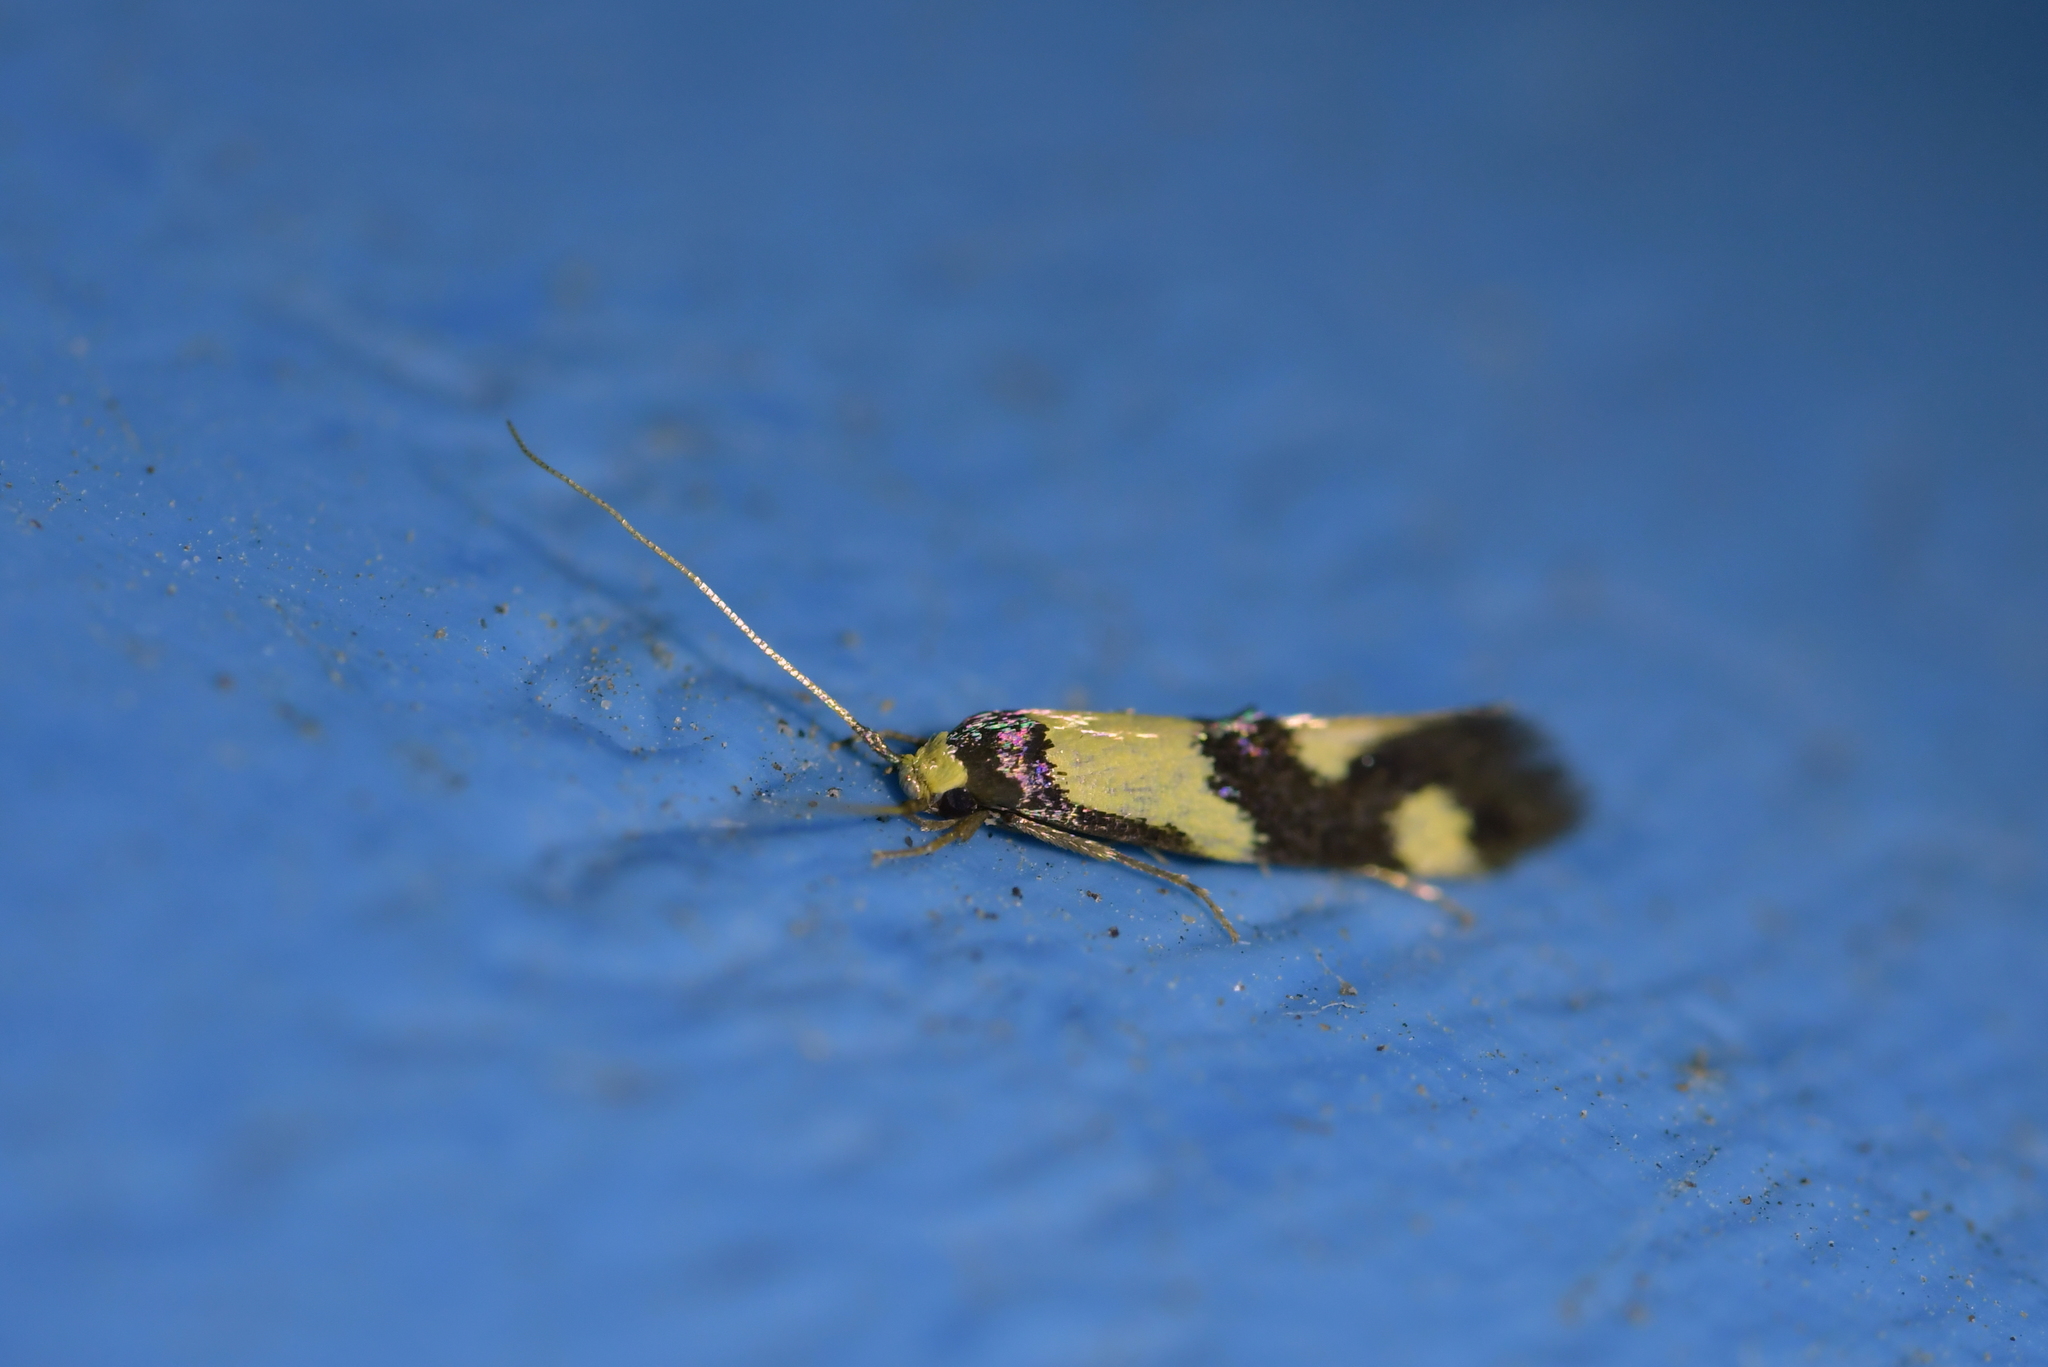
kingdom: Animalia
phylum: Arthropoda
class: Insecta
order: Lepidoptera
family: Tineidae
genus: Opogona
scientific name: Opogona comptella
